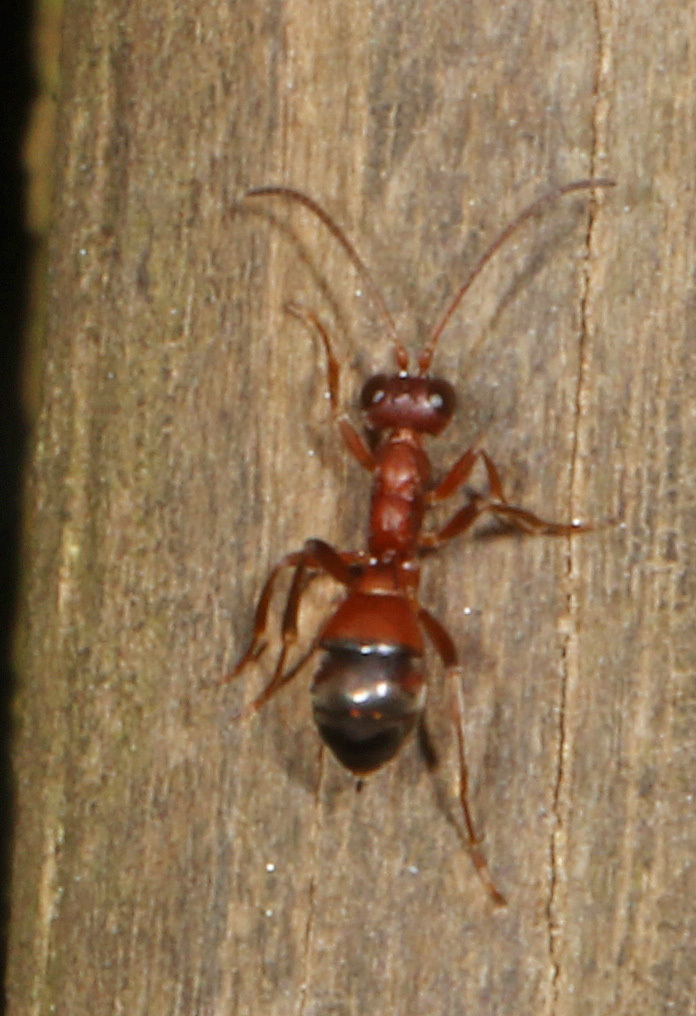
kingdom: Animalia
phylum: Arthropoda
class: Insecta
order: Hymenoptera
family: Ichneumonidae
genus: Gelis
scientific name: Gelis
